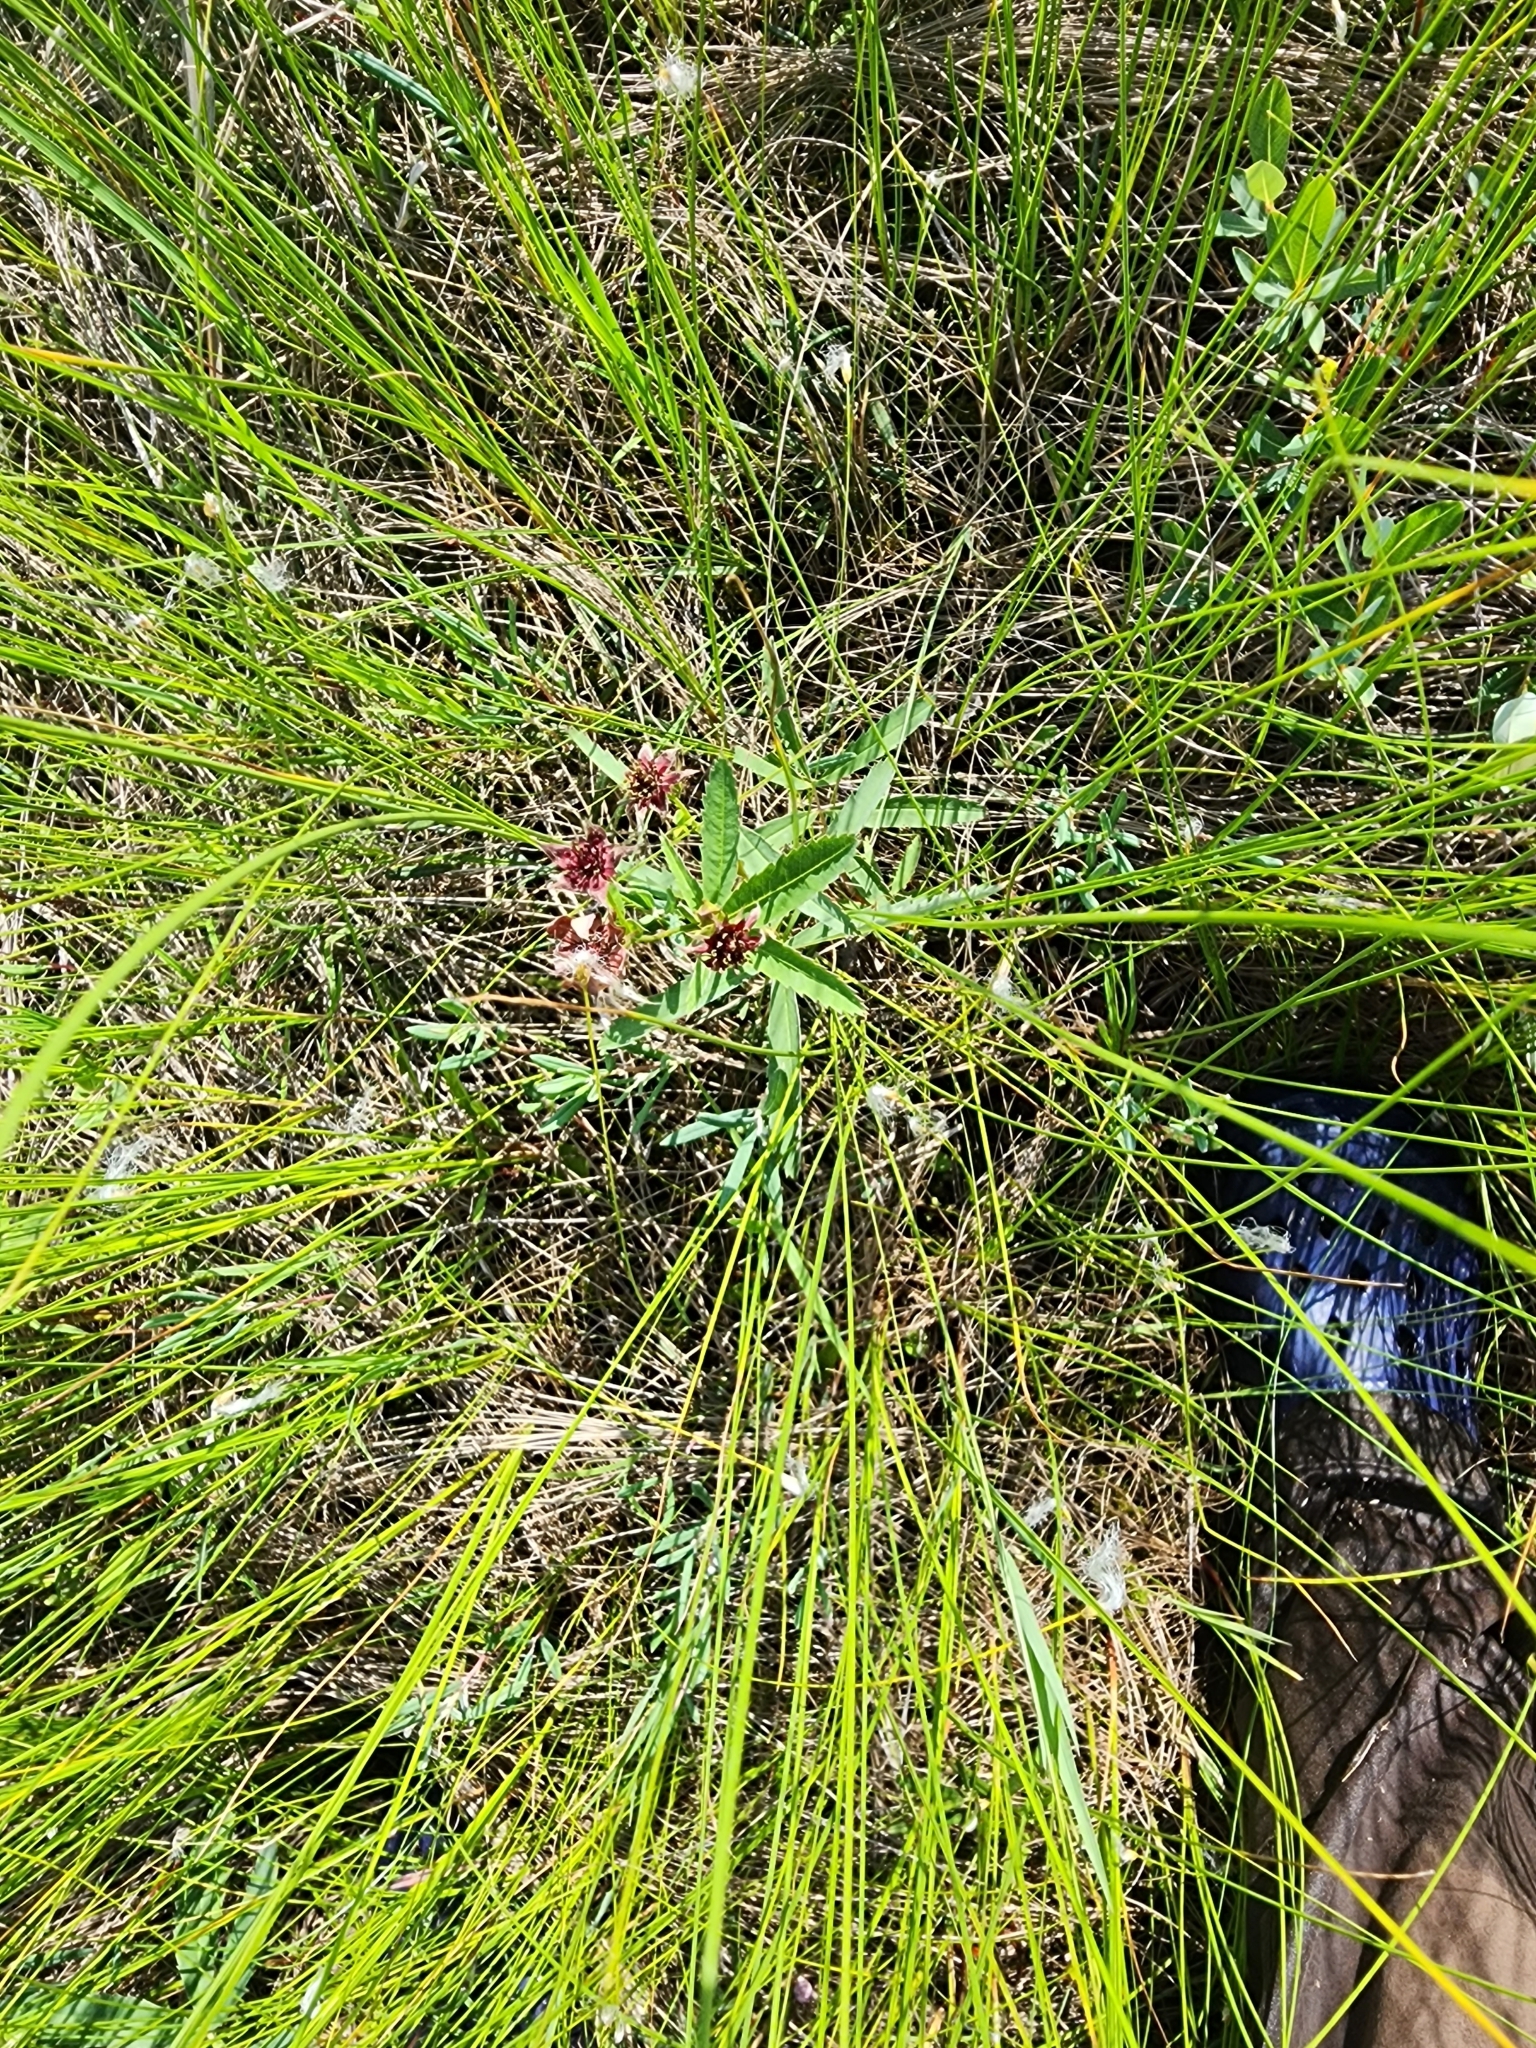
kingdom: Plantae
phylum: Tracheophyta
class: Magnoliopsida
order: Rosales
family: Rosaceae
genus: Comarum
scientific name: Comarum palustre
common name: Marsh cinquefoil
